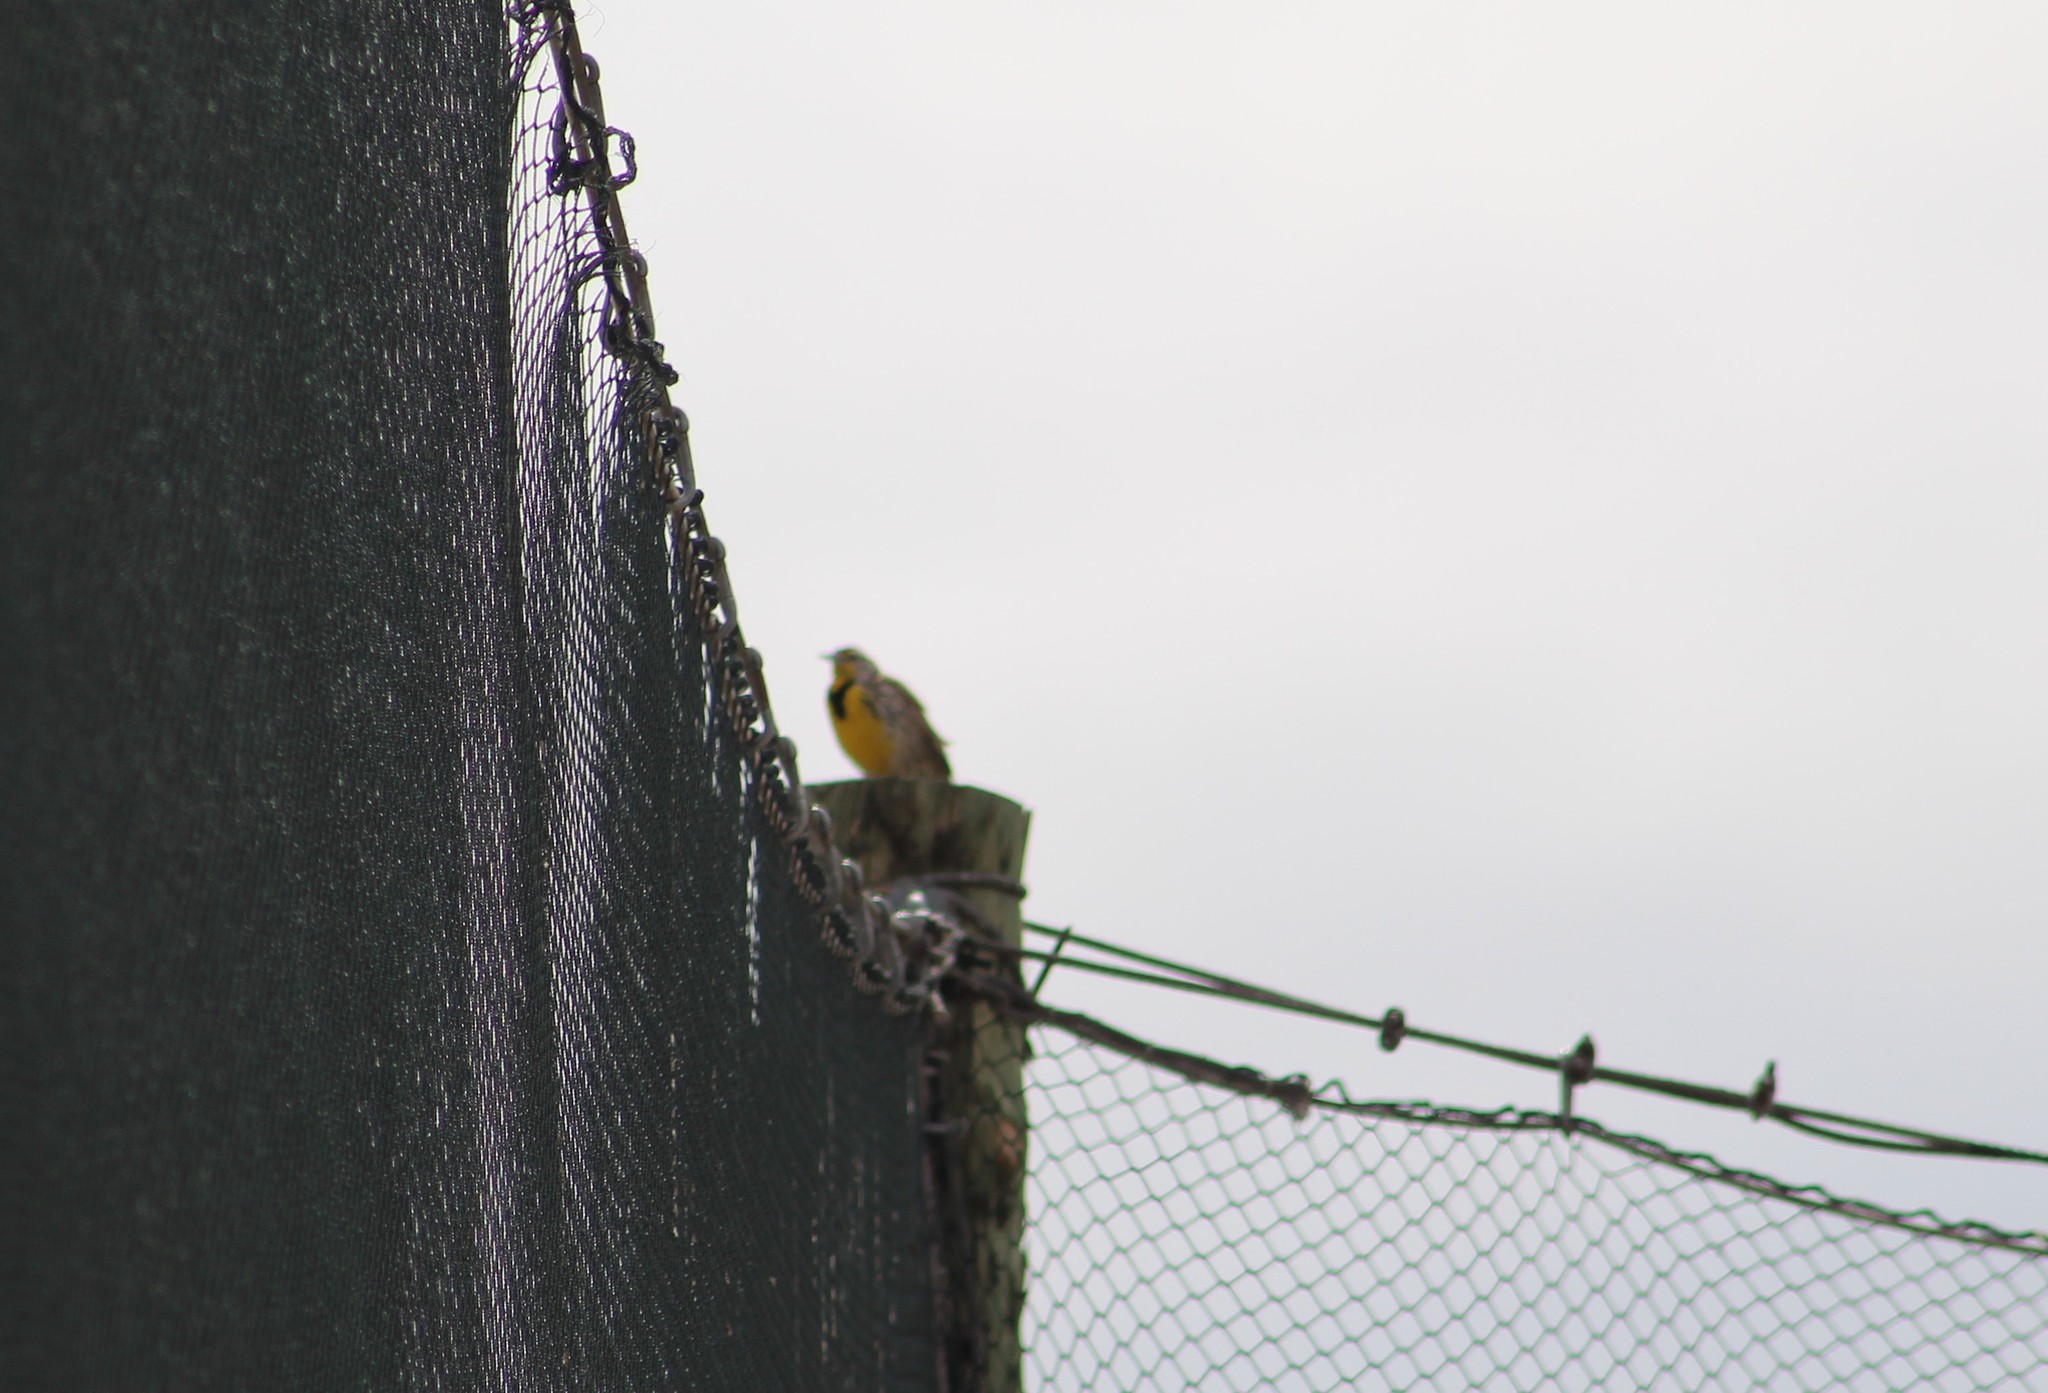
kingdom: Animalia
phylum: Chordata
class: Aves
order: Passeriformes
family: Icteridae
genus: Sturnella
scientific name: Sturnella neglecta
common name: Western meadowlark
